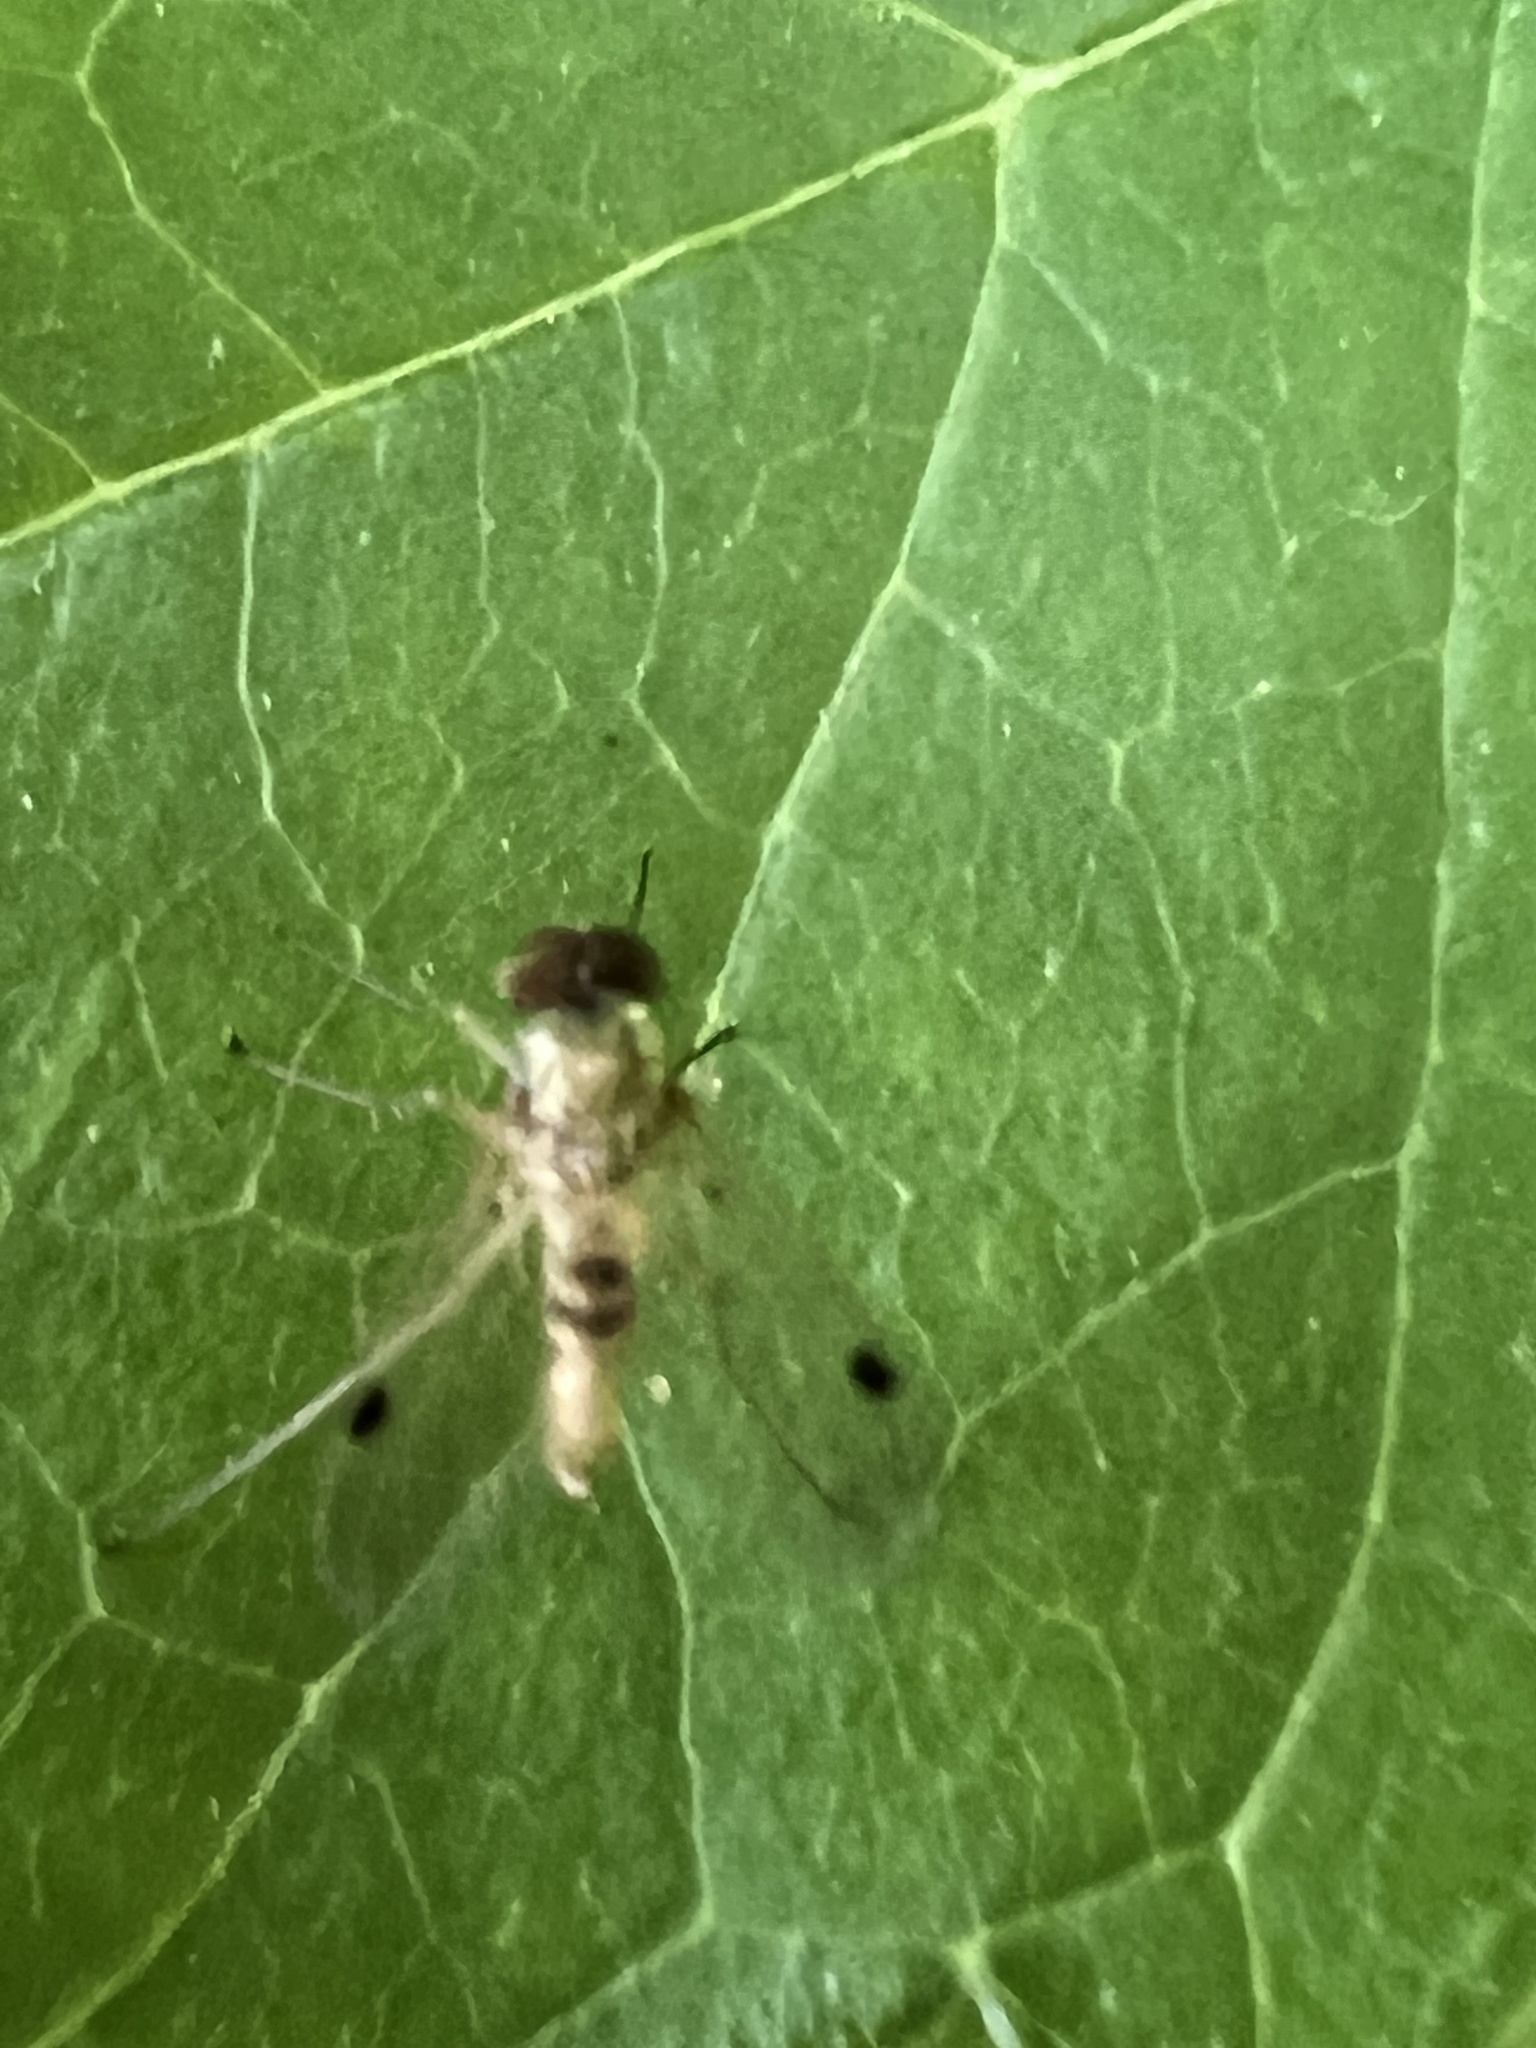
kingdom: Animalia
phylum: Arthropoda
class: Insecta
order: Diptera
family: Rhagionidae
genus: Chrysopilus
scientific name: Chrysopilus modestus
